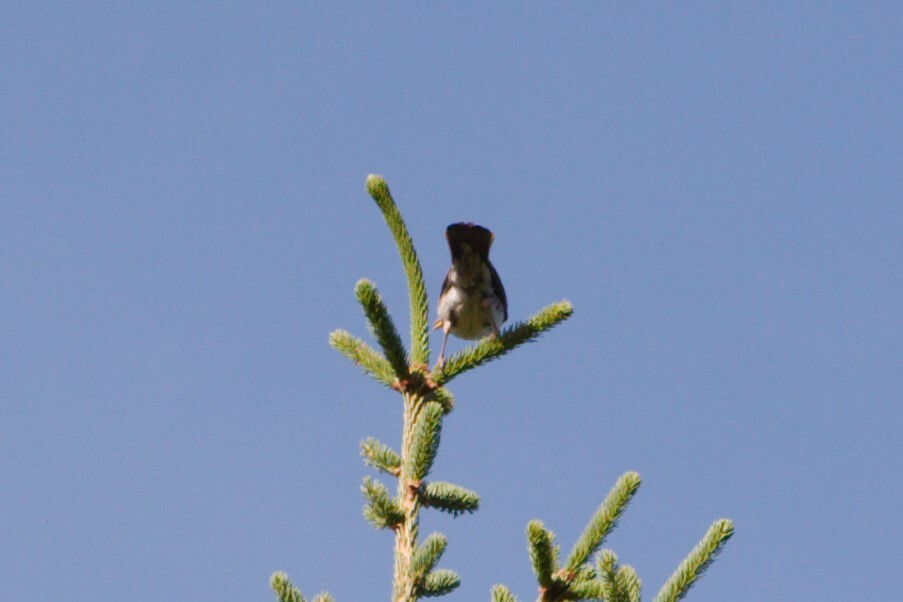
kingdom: Animalia
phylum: Chordata
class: Aves
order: Passeriformes
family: Turdidae
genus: Turdus
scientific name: Turdus pilaris
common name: Fieldfare
